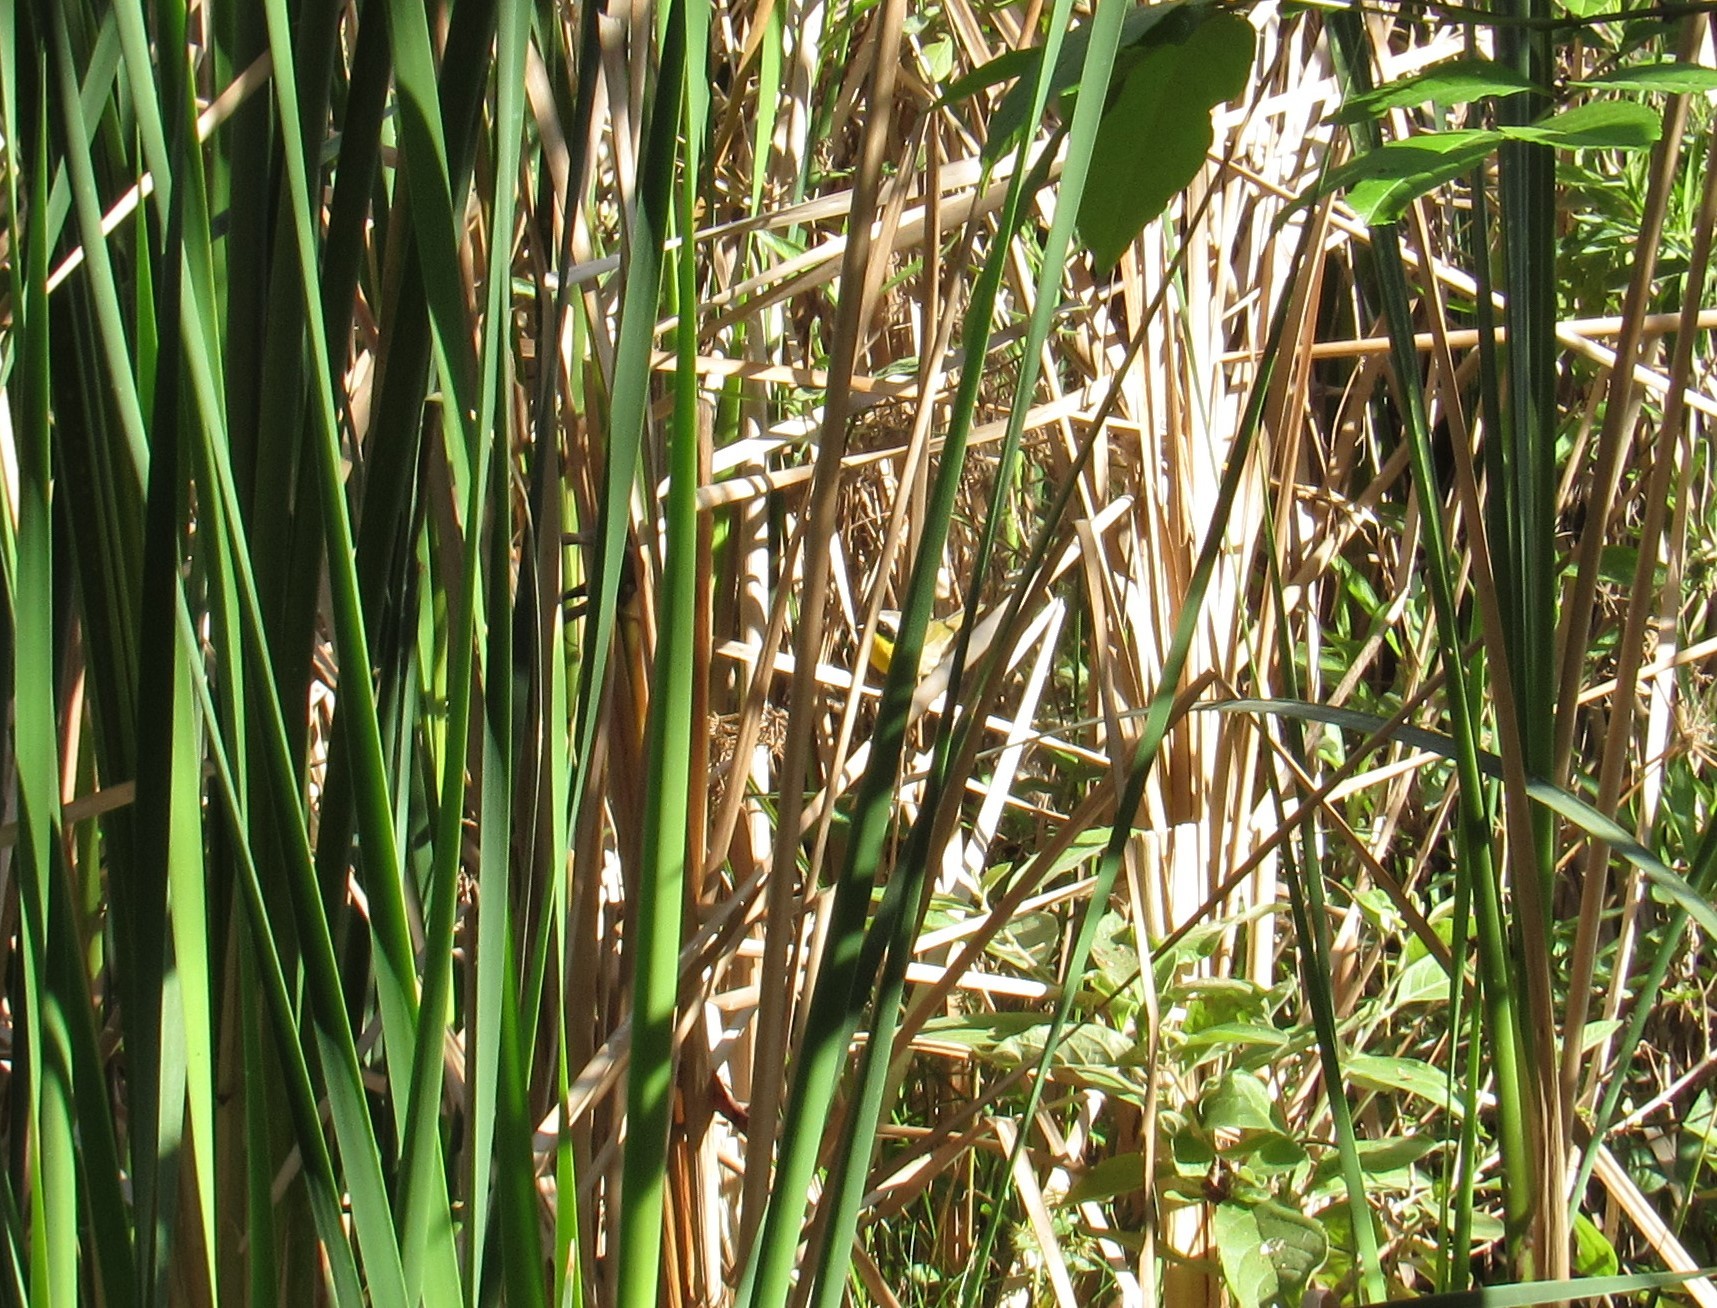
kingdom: Animalia
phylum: Chordata
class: Aves
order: Passeriformes
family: Parulidae
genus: Geothlypis
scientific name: Geothlypis trichas
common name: Common yellowthroat
